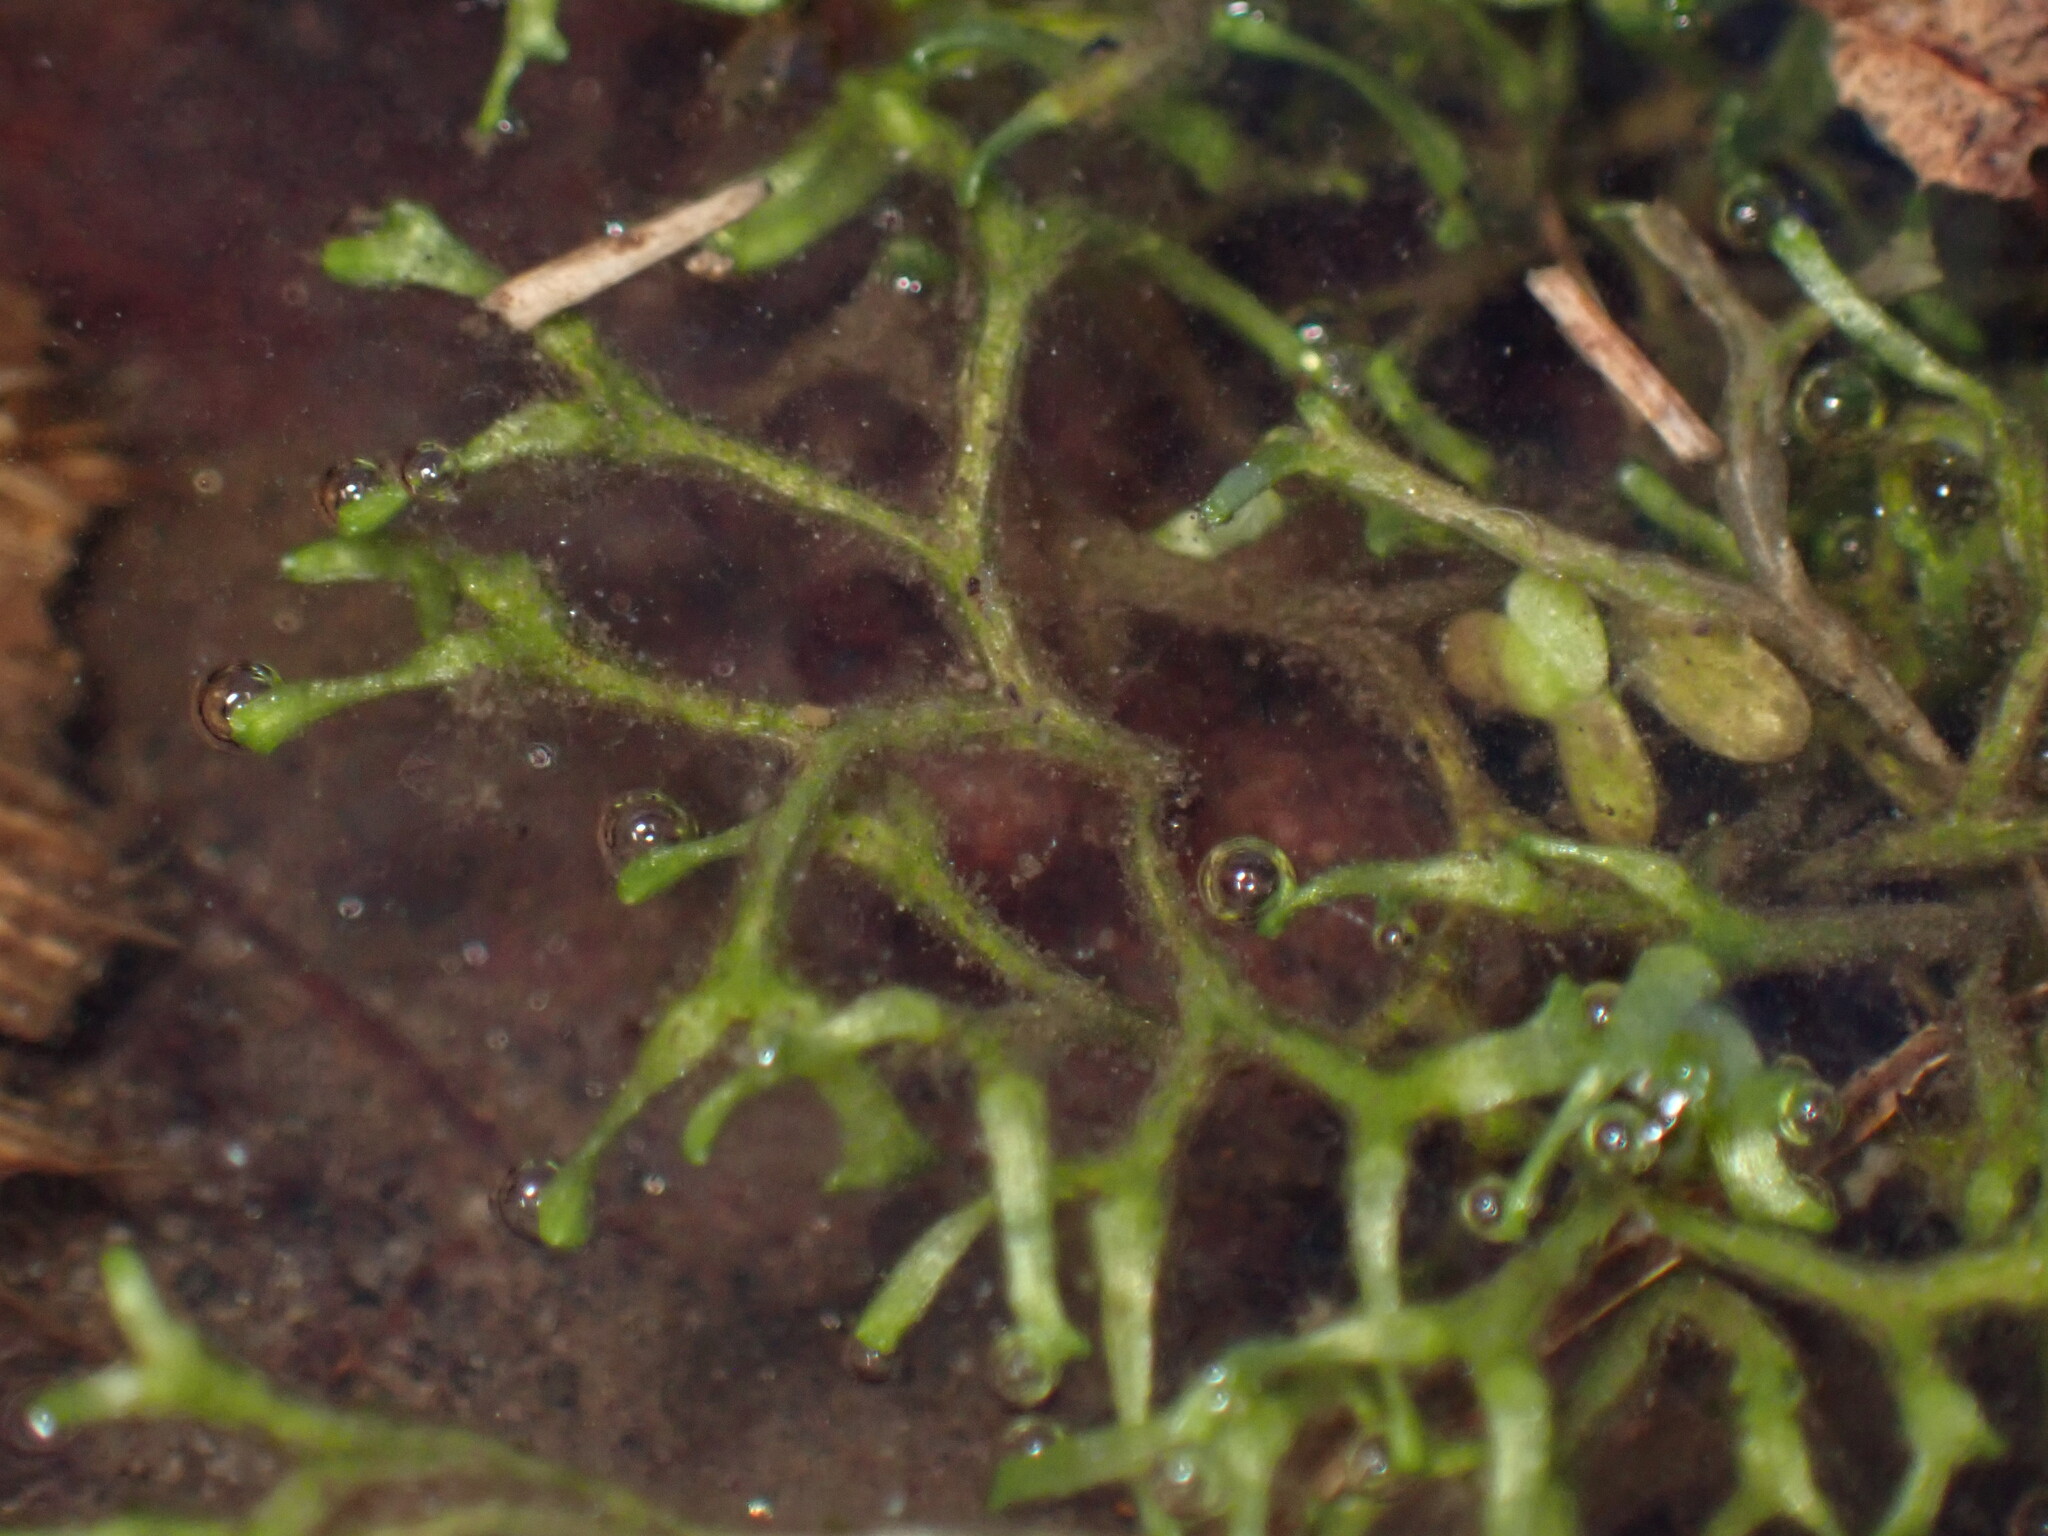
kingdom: Plantae
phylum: Marchantiophyta
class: Marchantiopsida
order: Marchantiales
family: Ricciaceae
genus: Riccia
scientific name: Riccia fluitans
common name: Floating crystalwort
